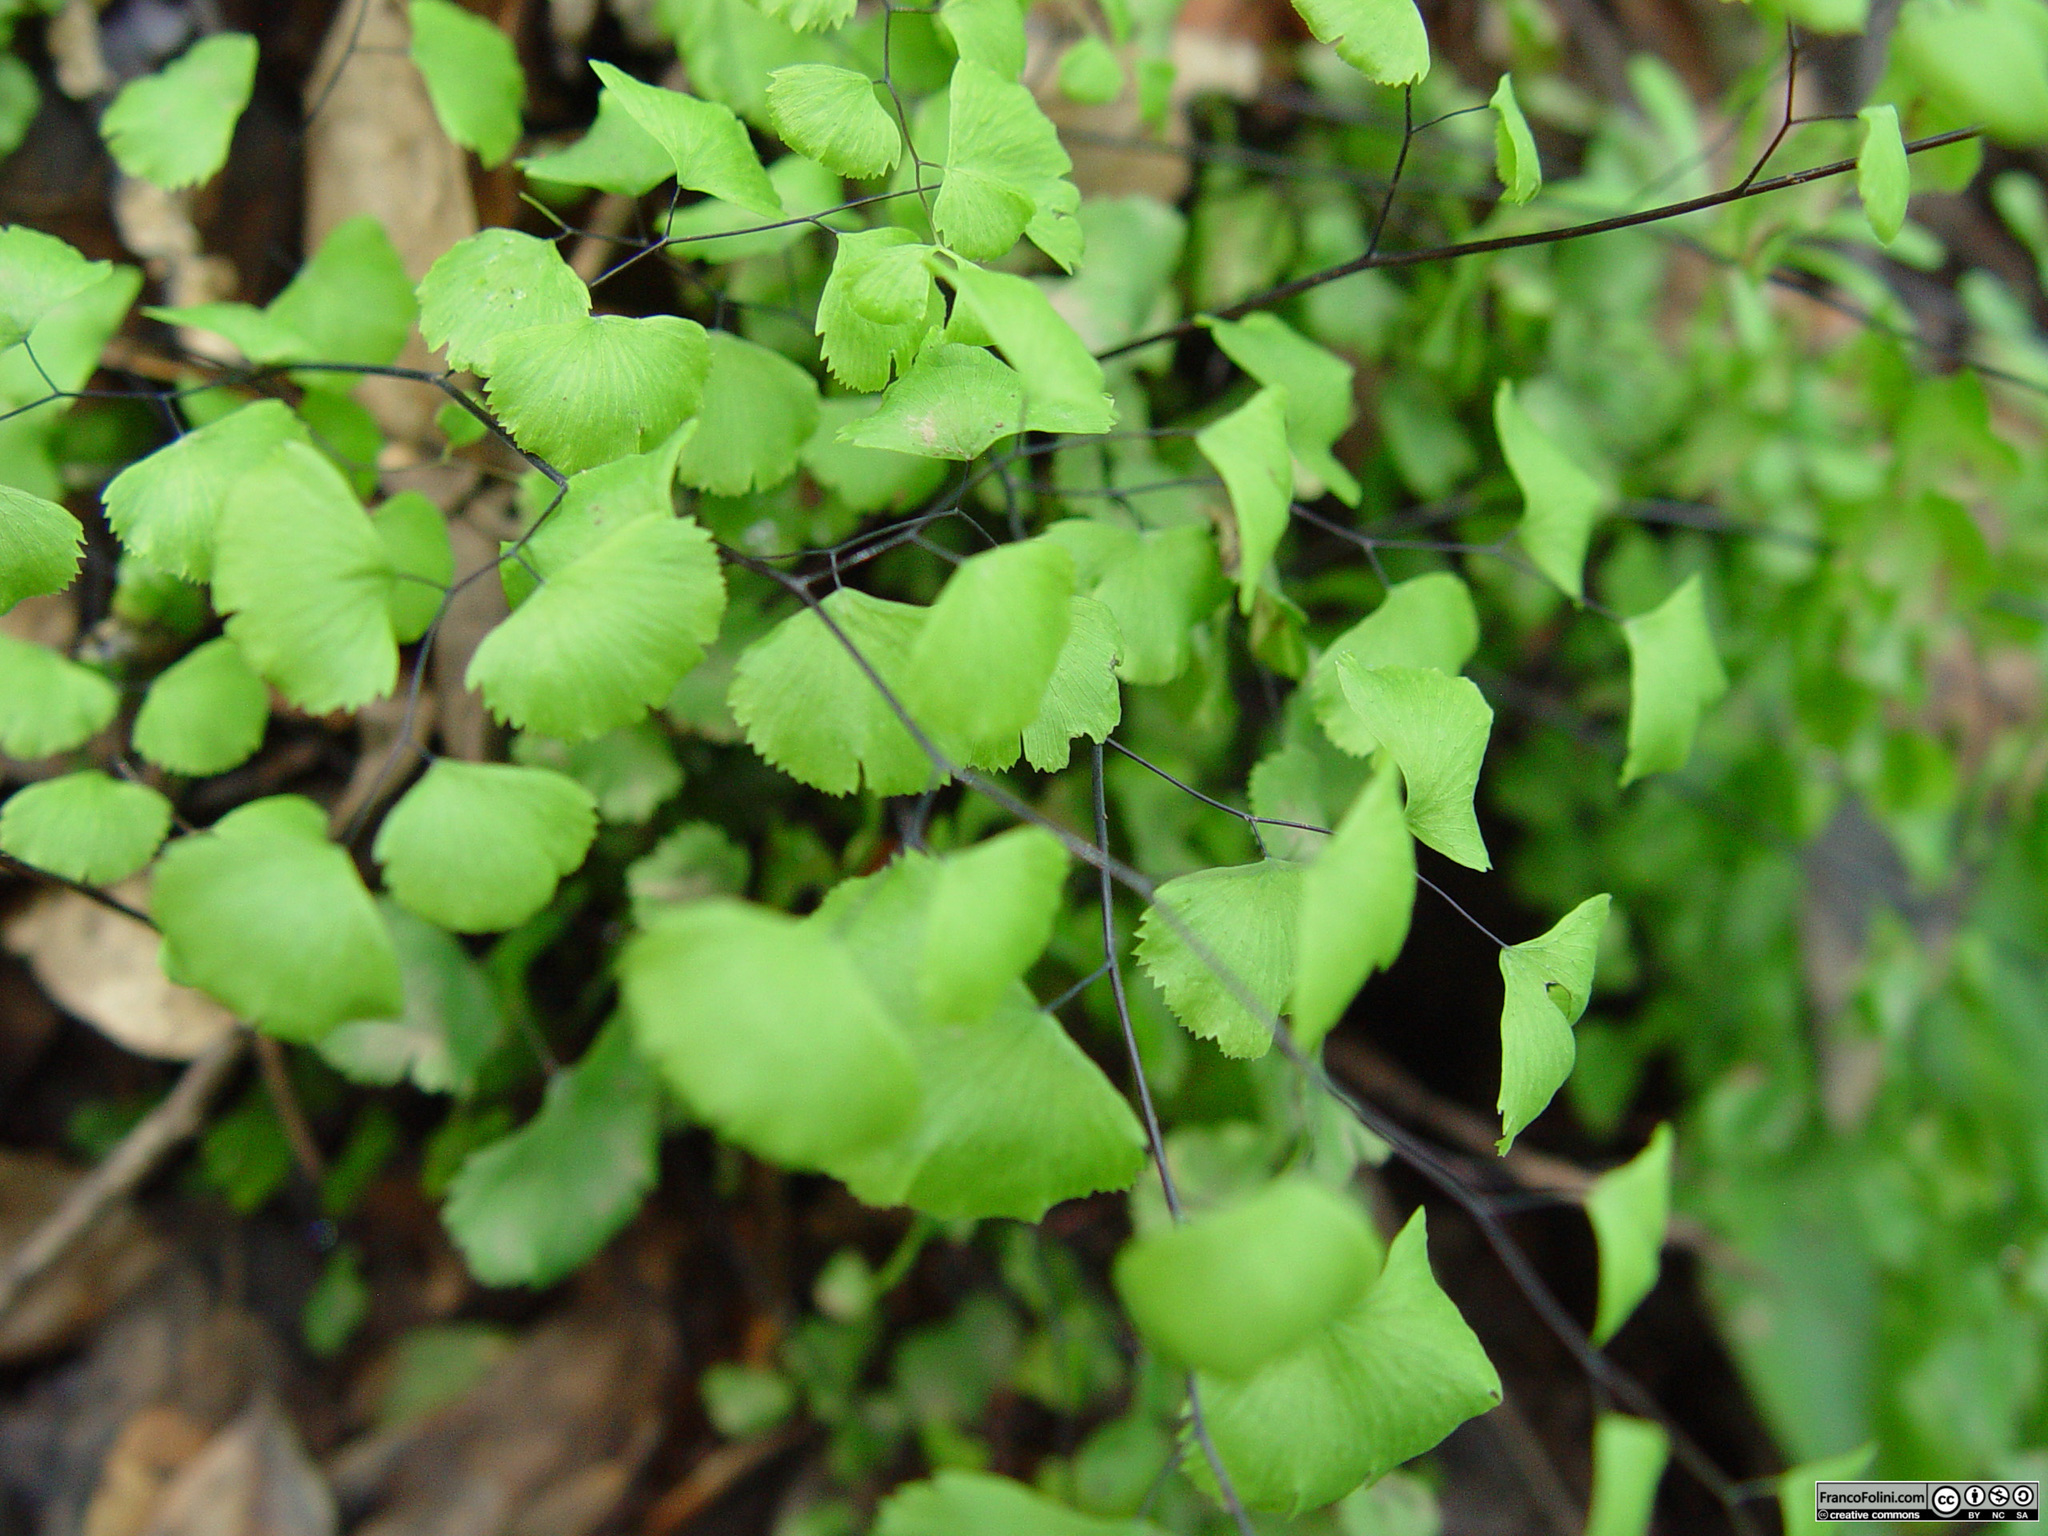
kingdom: Plantae
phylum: Tracheophyta
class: Polypodiopsida
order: Polypodiales
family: Pteridaceae
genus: Adiantum
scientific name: Adiantum jordanii
